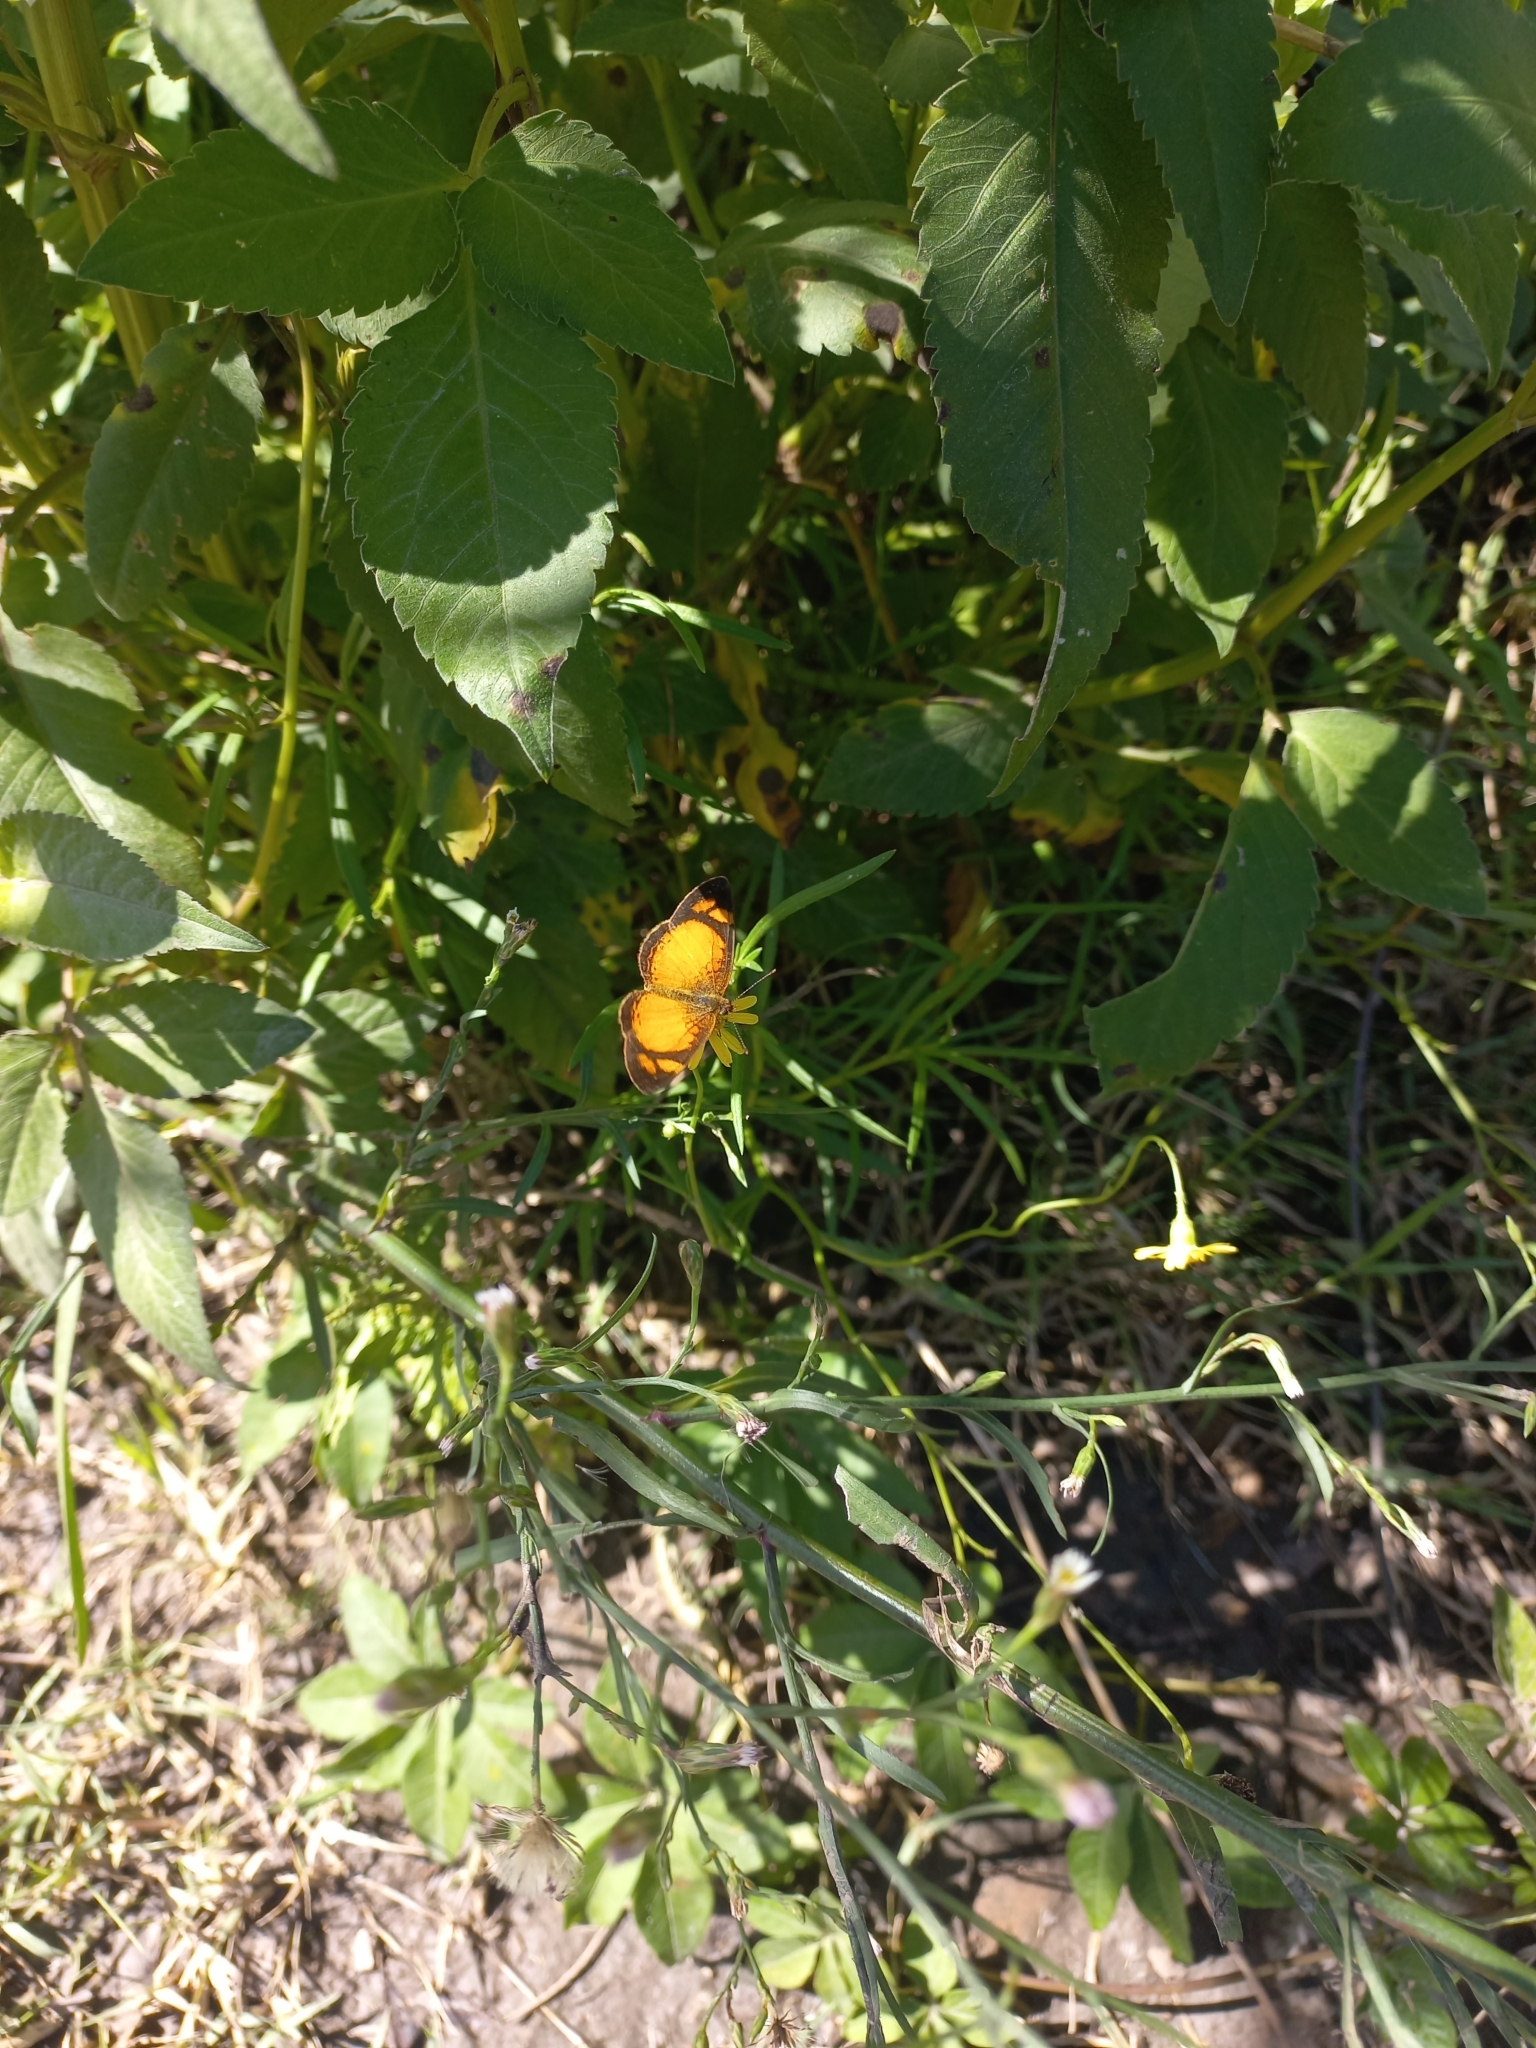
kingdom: Animalia
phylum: Arthropoda
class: Insecta
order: Lepidoptera
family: Nymphalidae
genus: Tegosa
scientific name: Tegosa claudina
